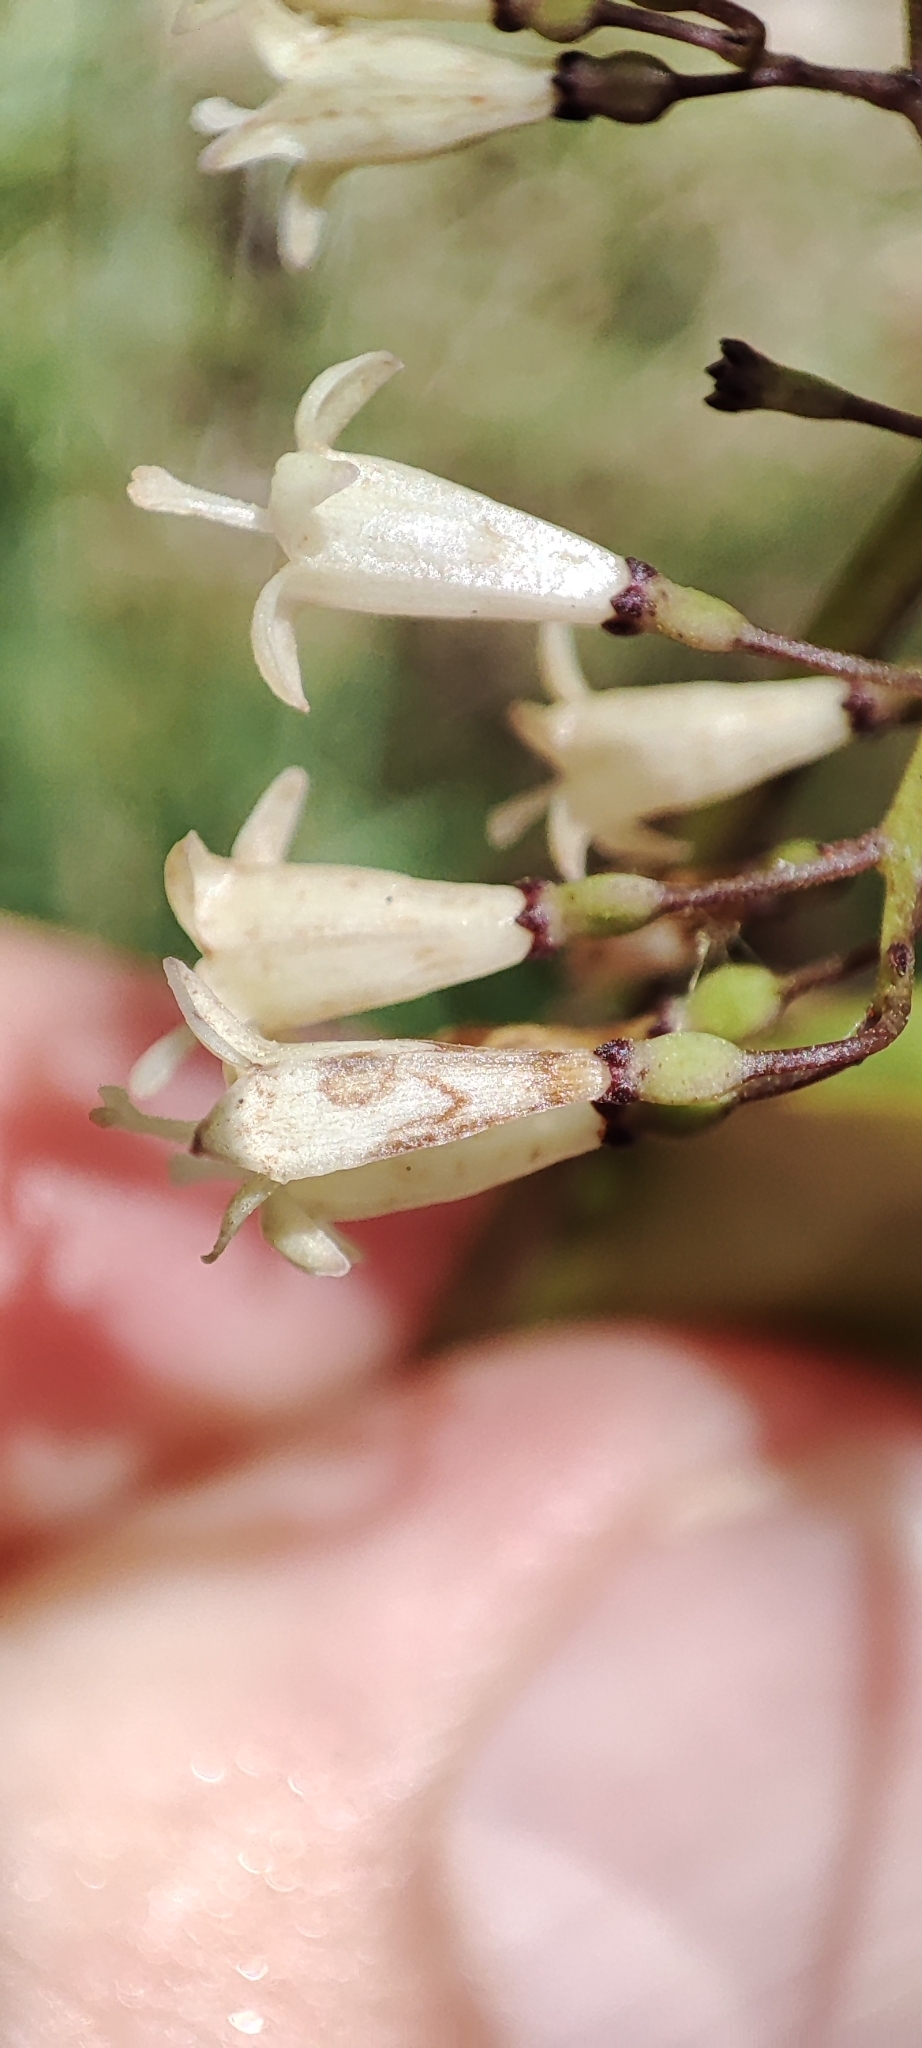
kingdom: Plantae
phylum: Tracheophyta
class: Magnoliopsida
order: Gentianales
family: Rubiaceae
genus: Chiococca
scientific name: Chiococca alba
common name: Snowberry
